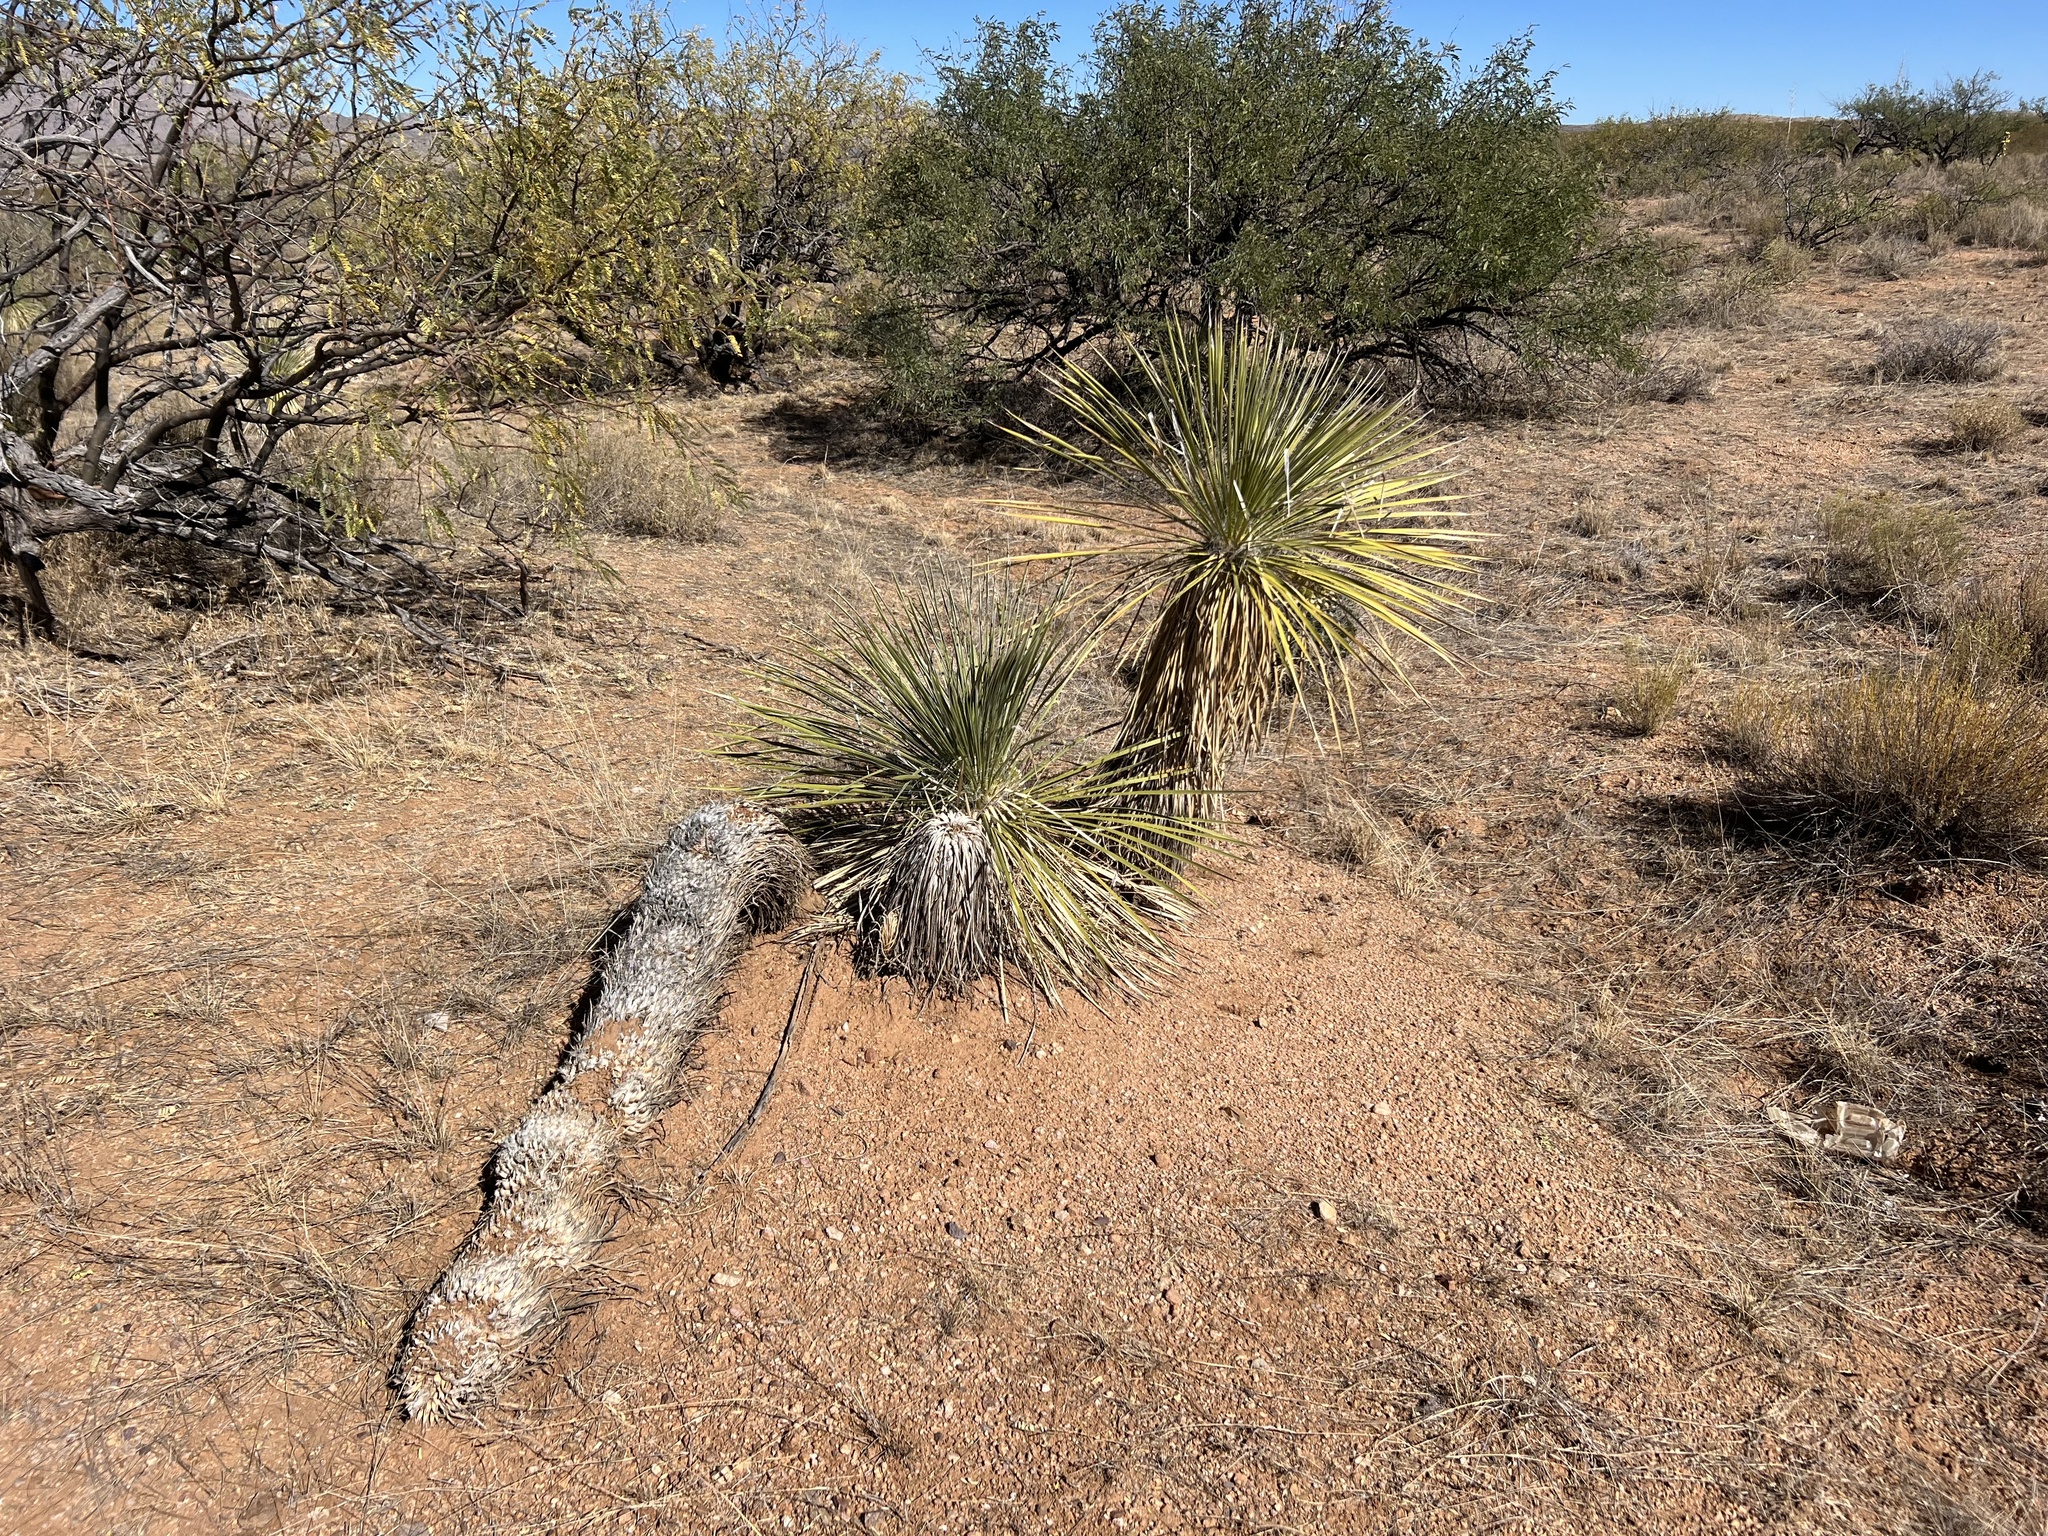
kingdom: Plantae
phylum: Tracheophyta
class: Liliopsida
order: Asparagales
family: Asparagaceae
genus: Yucca
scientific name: Yucca elata
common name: Palmella
